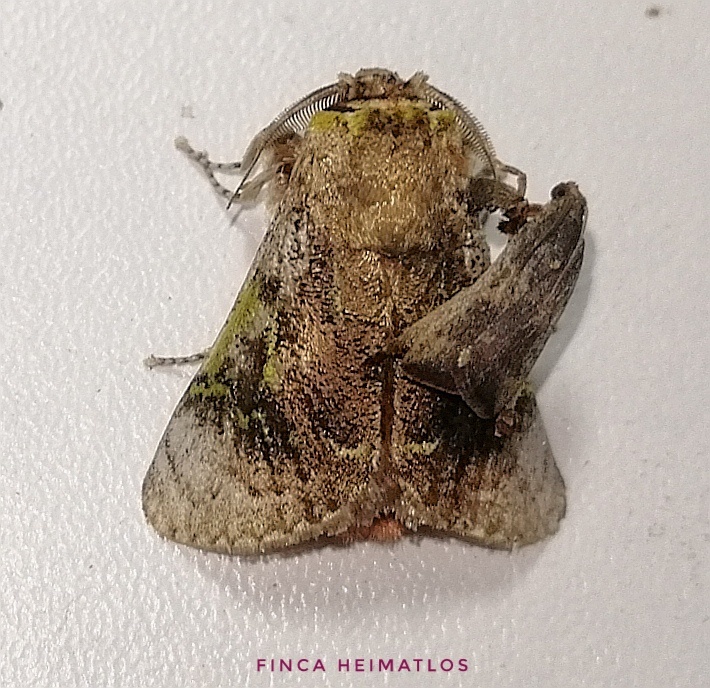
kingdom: Animalia
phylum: Arthropoda
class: Insecta
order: Lepidoptera
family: Aididae
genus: Aidos
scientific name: Aidos yamouna
